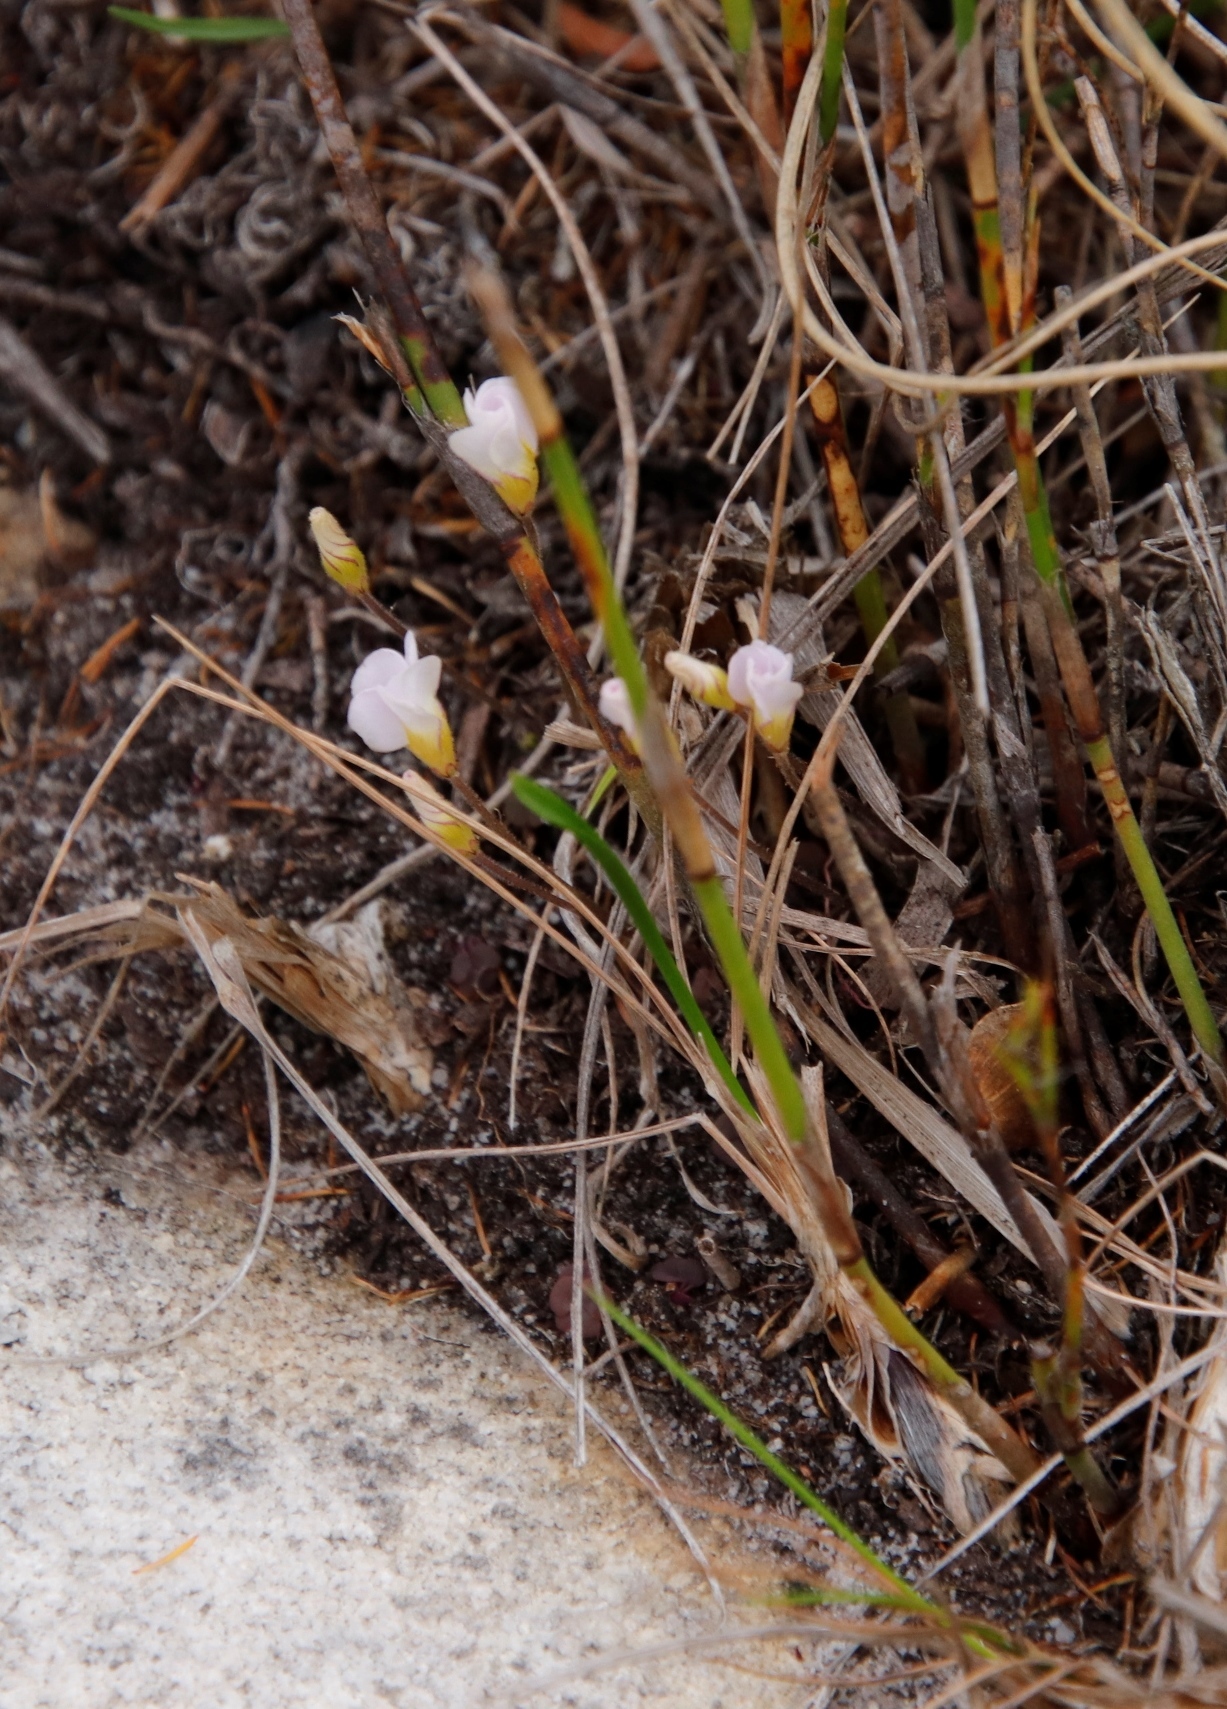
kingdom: Plantae
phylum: Tracheophyta
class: Magnoliopsida
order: Oxalidales
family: Oxalidaceae
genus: Oxalis
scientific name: Oxalis punctata
